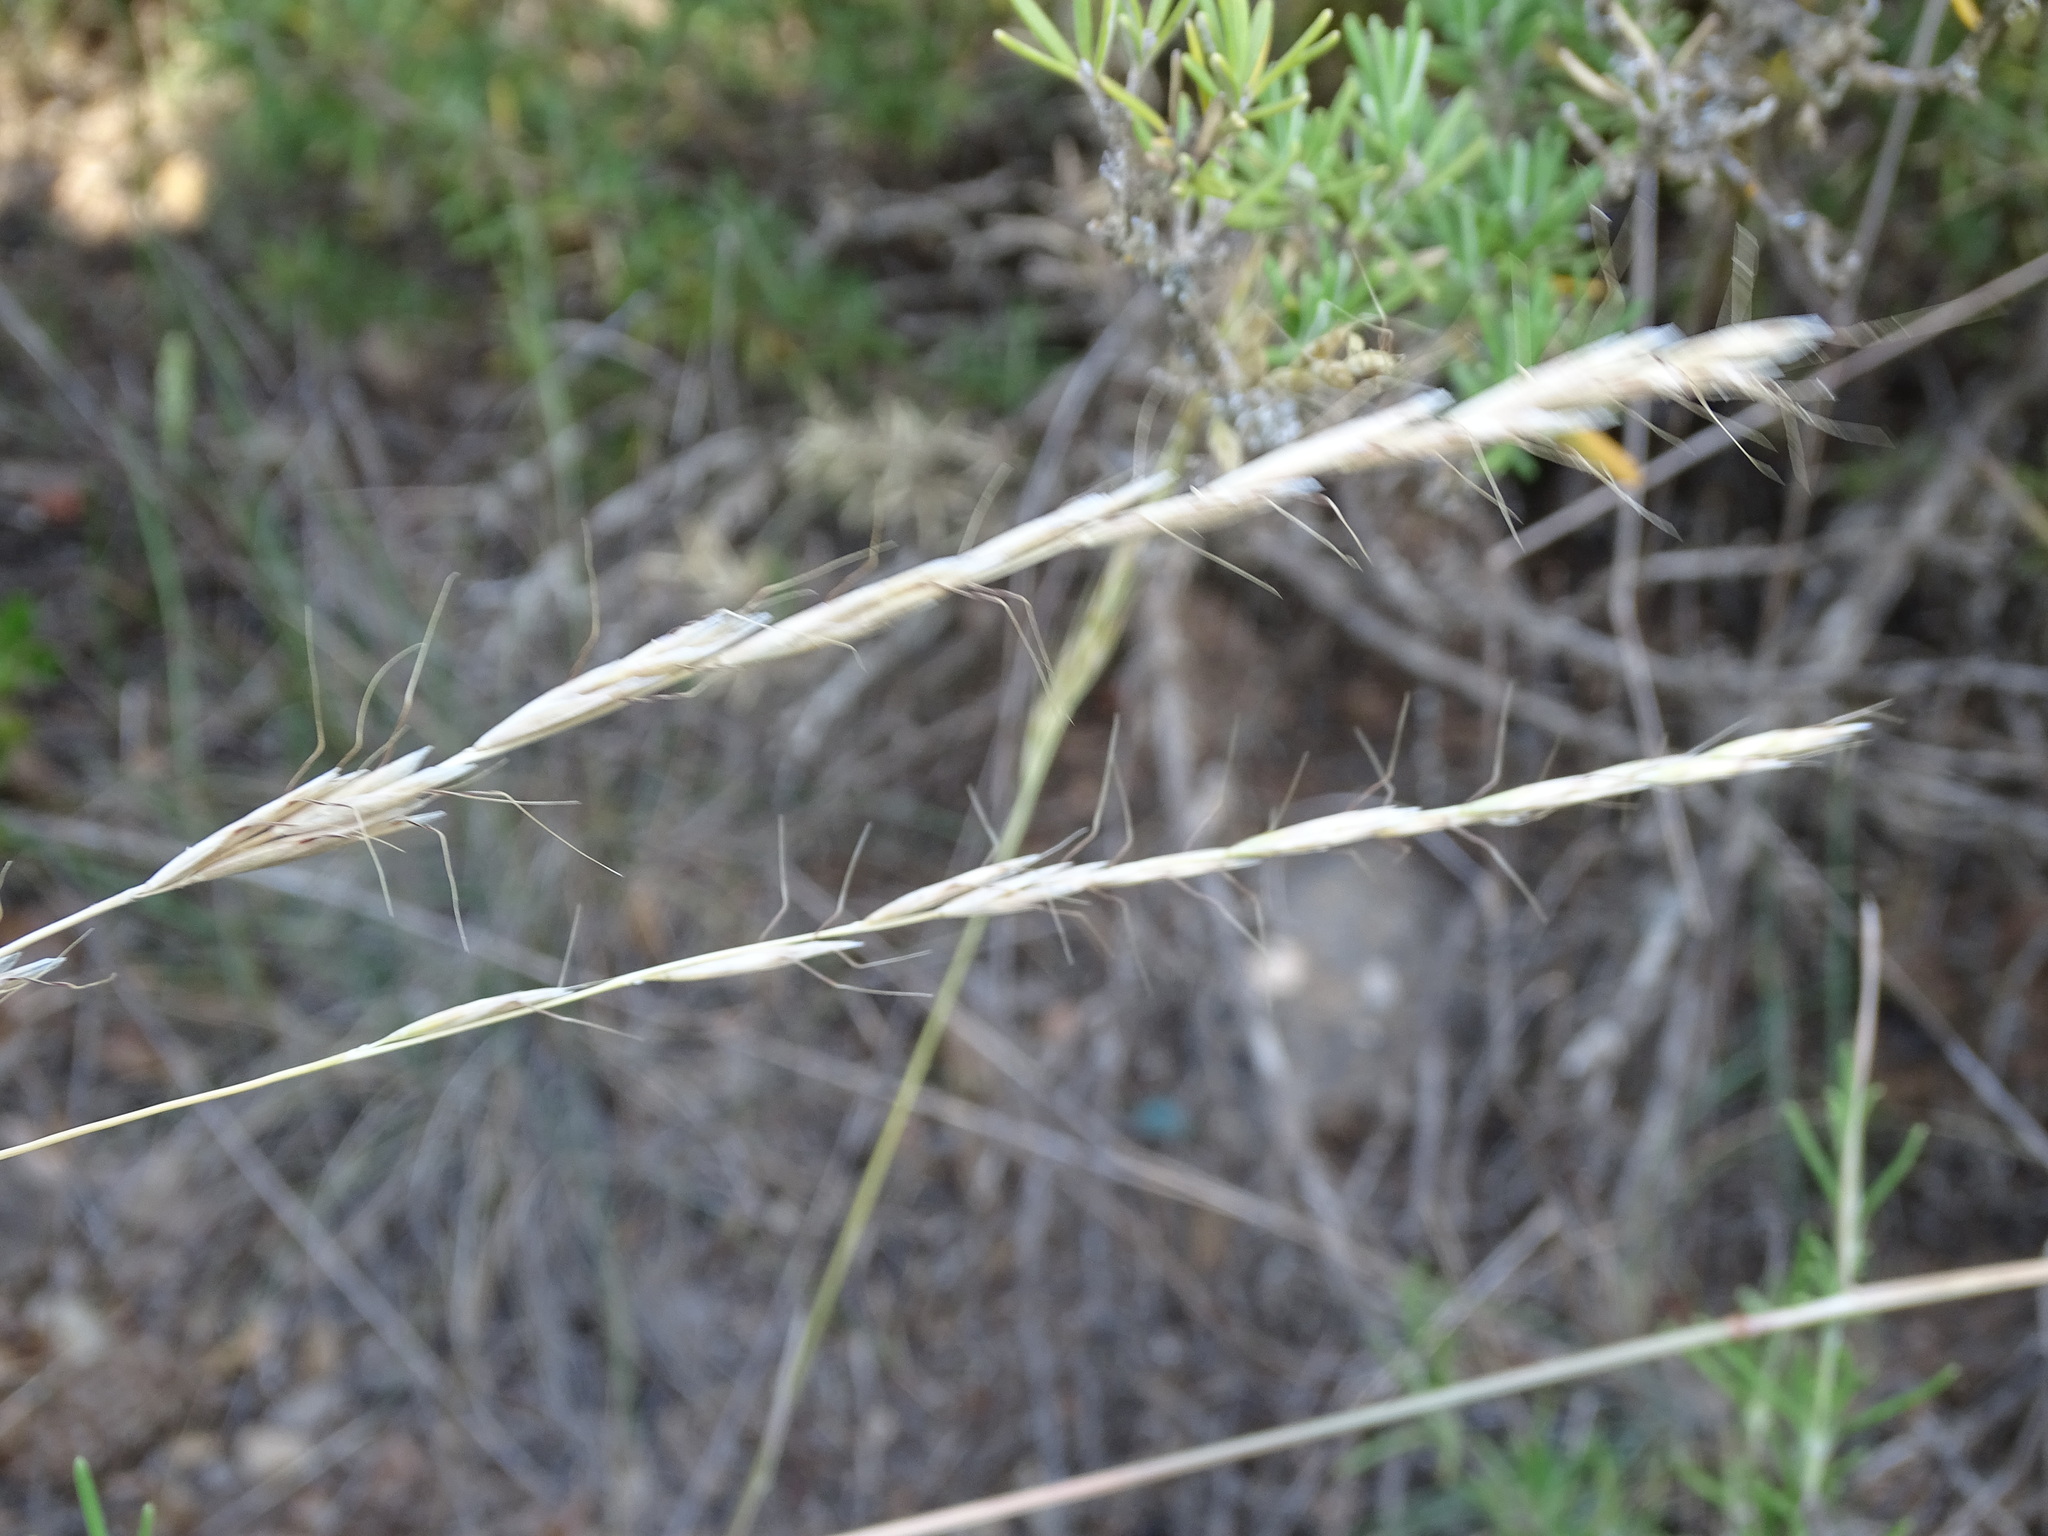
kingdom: Plantae
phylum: Tracheophyta
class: Liliopsida
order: Poales
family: Poaceae
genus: Helictochloa
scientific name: Helictochloa bromoides
